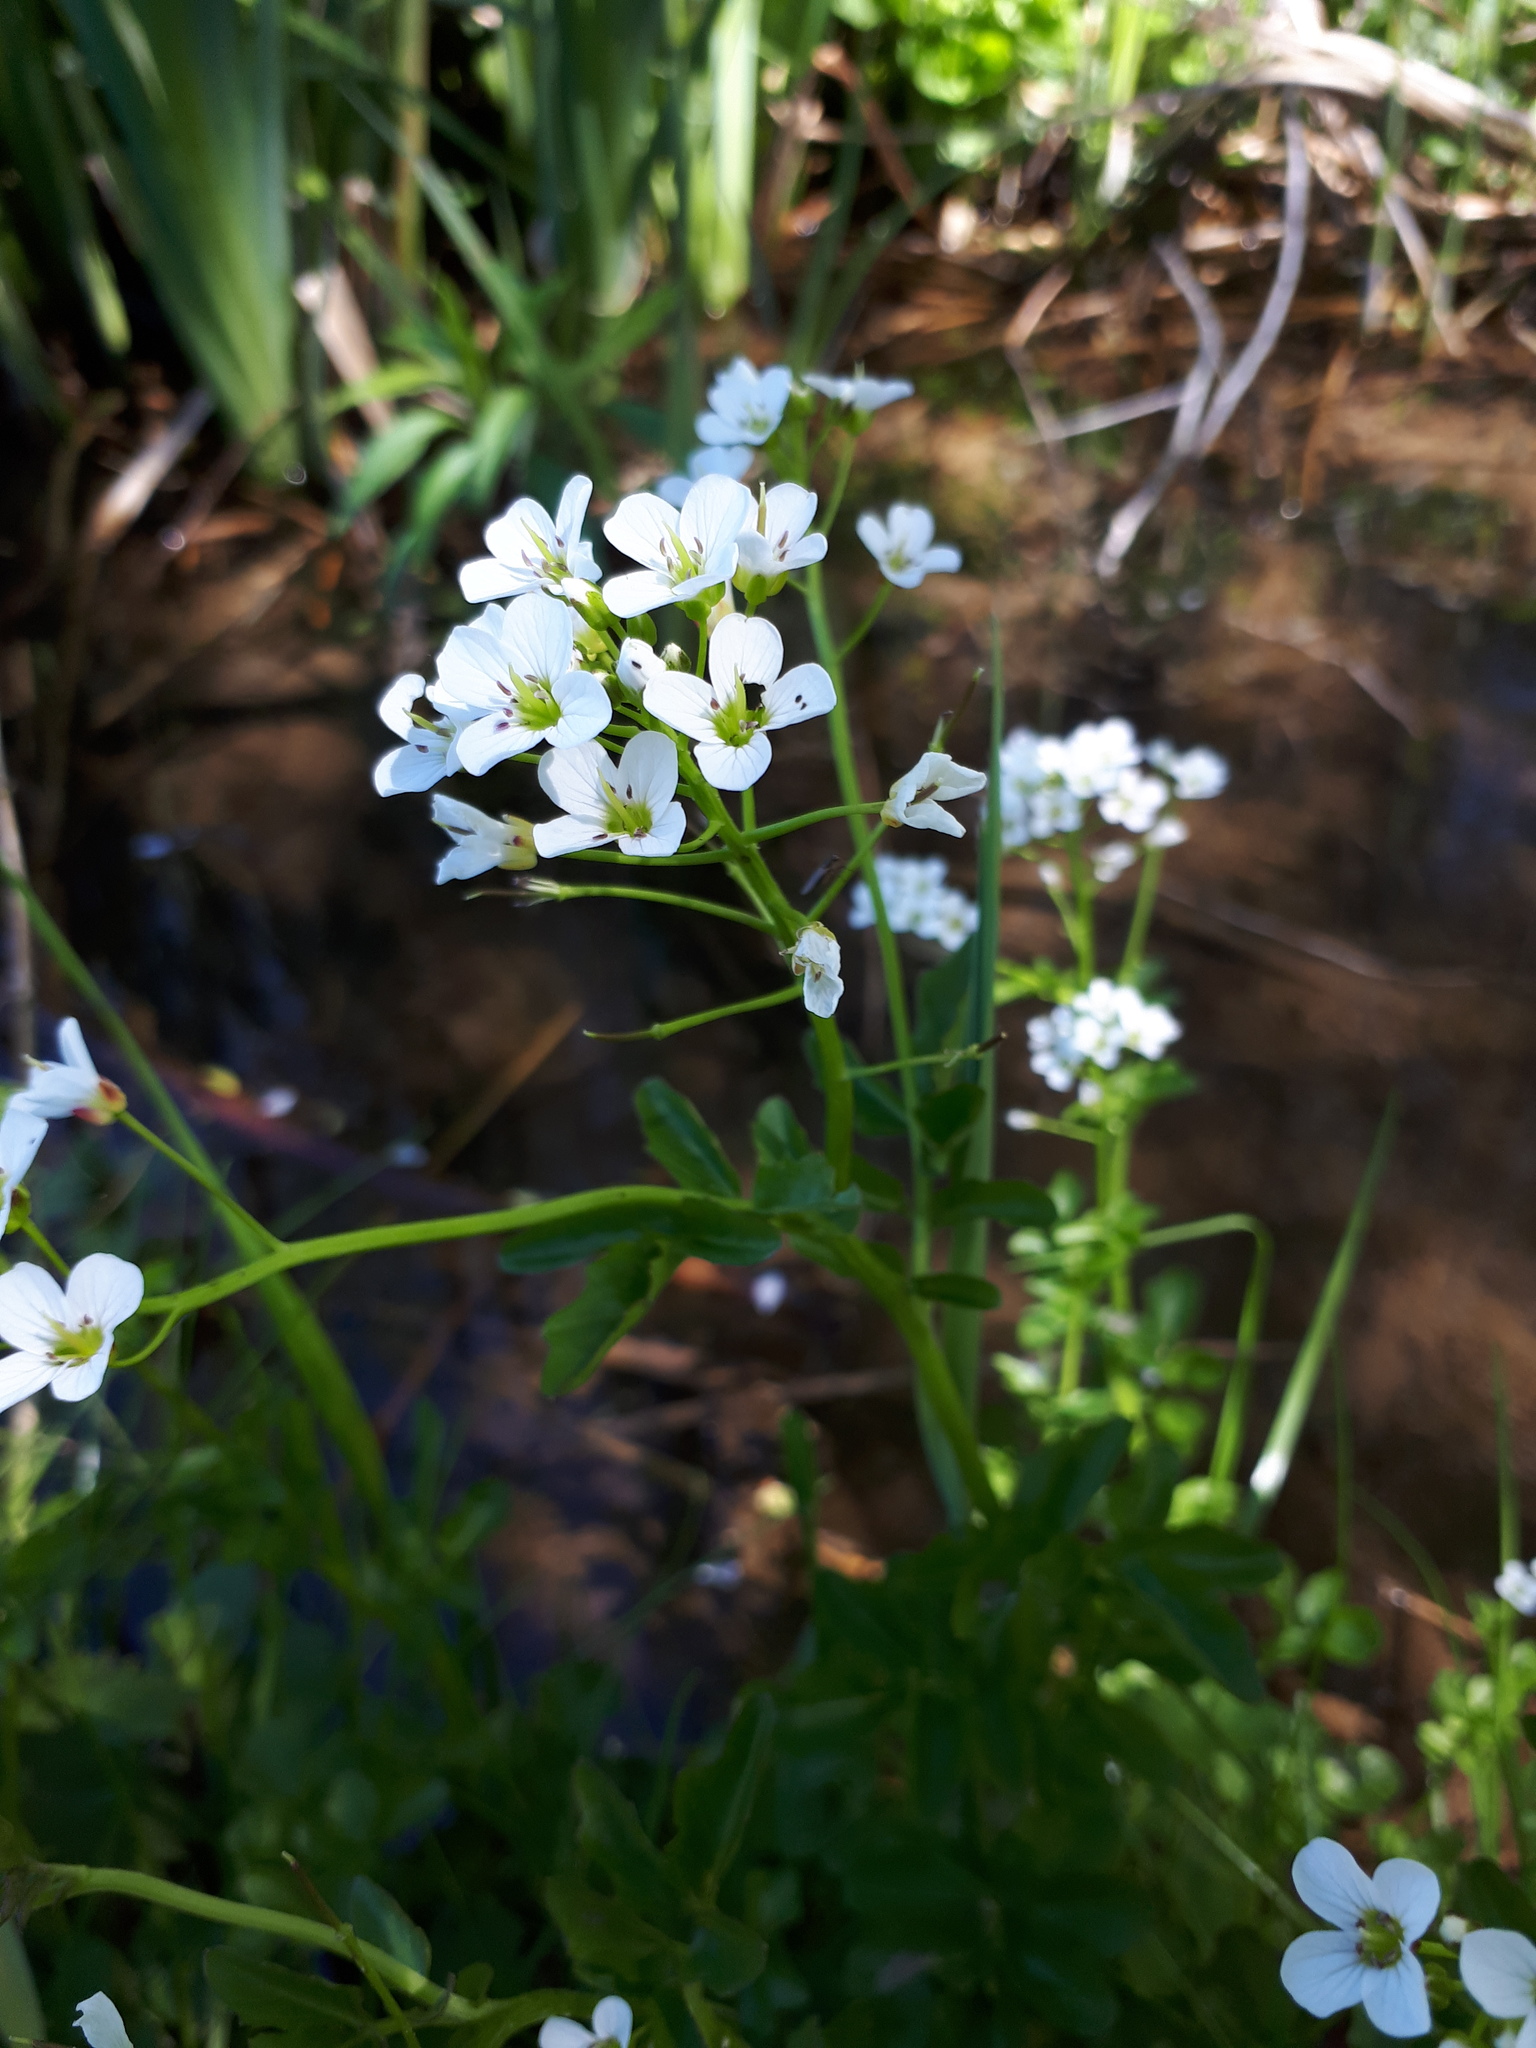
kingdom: Plantae
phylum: Tracheophyta
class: Magnoliopsida
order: Brassicales
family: Brassicaceae
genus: Cardamine
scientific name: Cardamine amara
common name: Large bitter-cress
